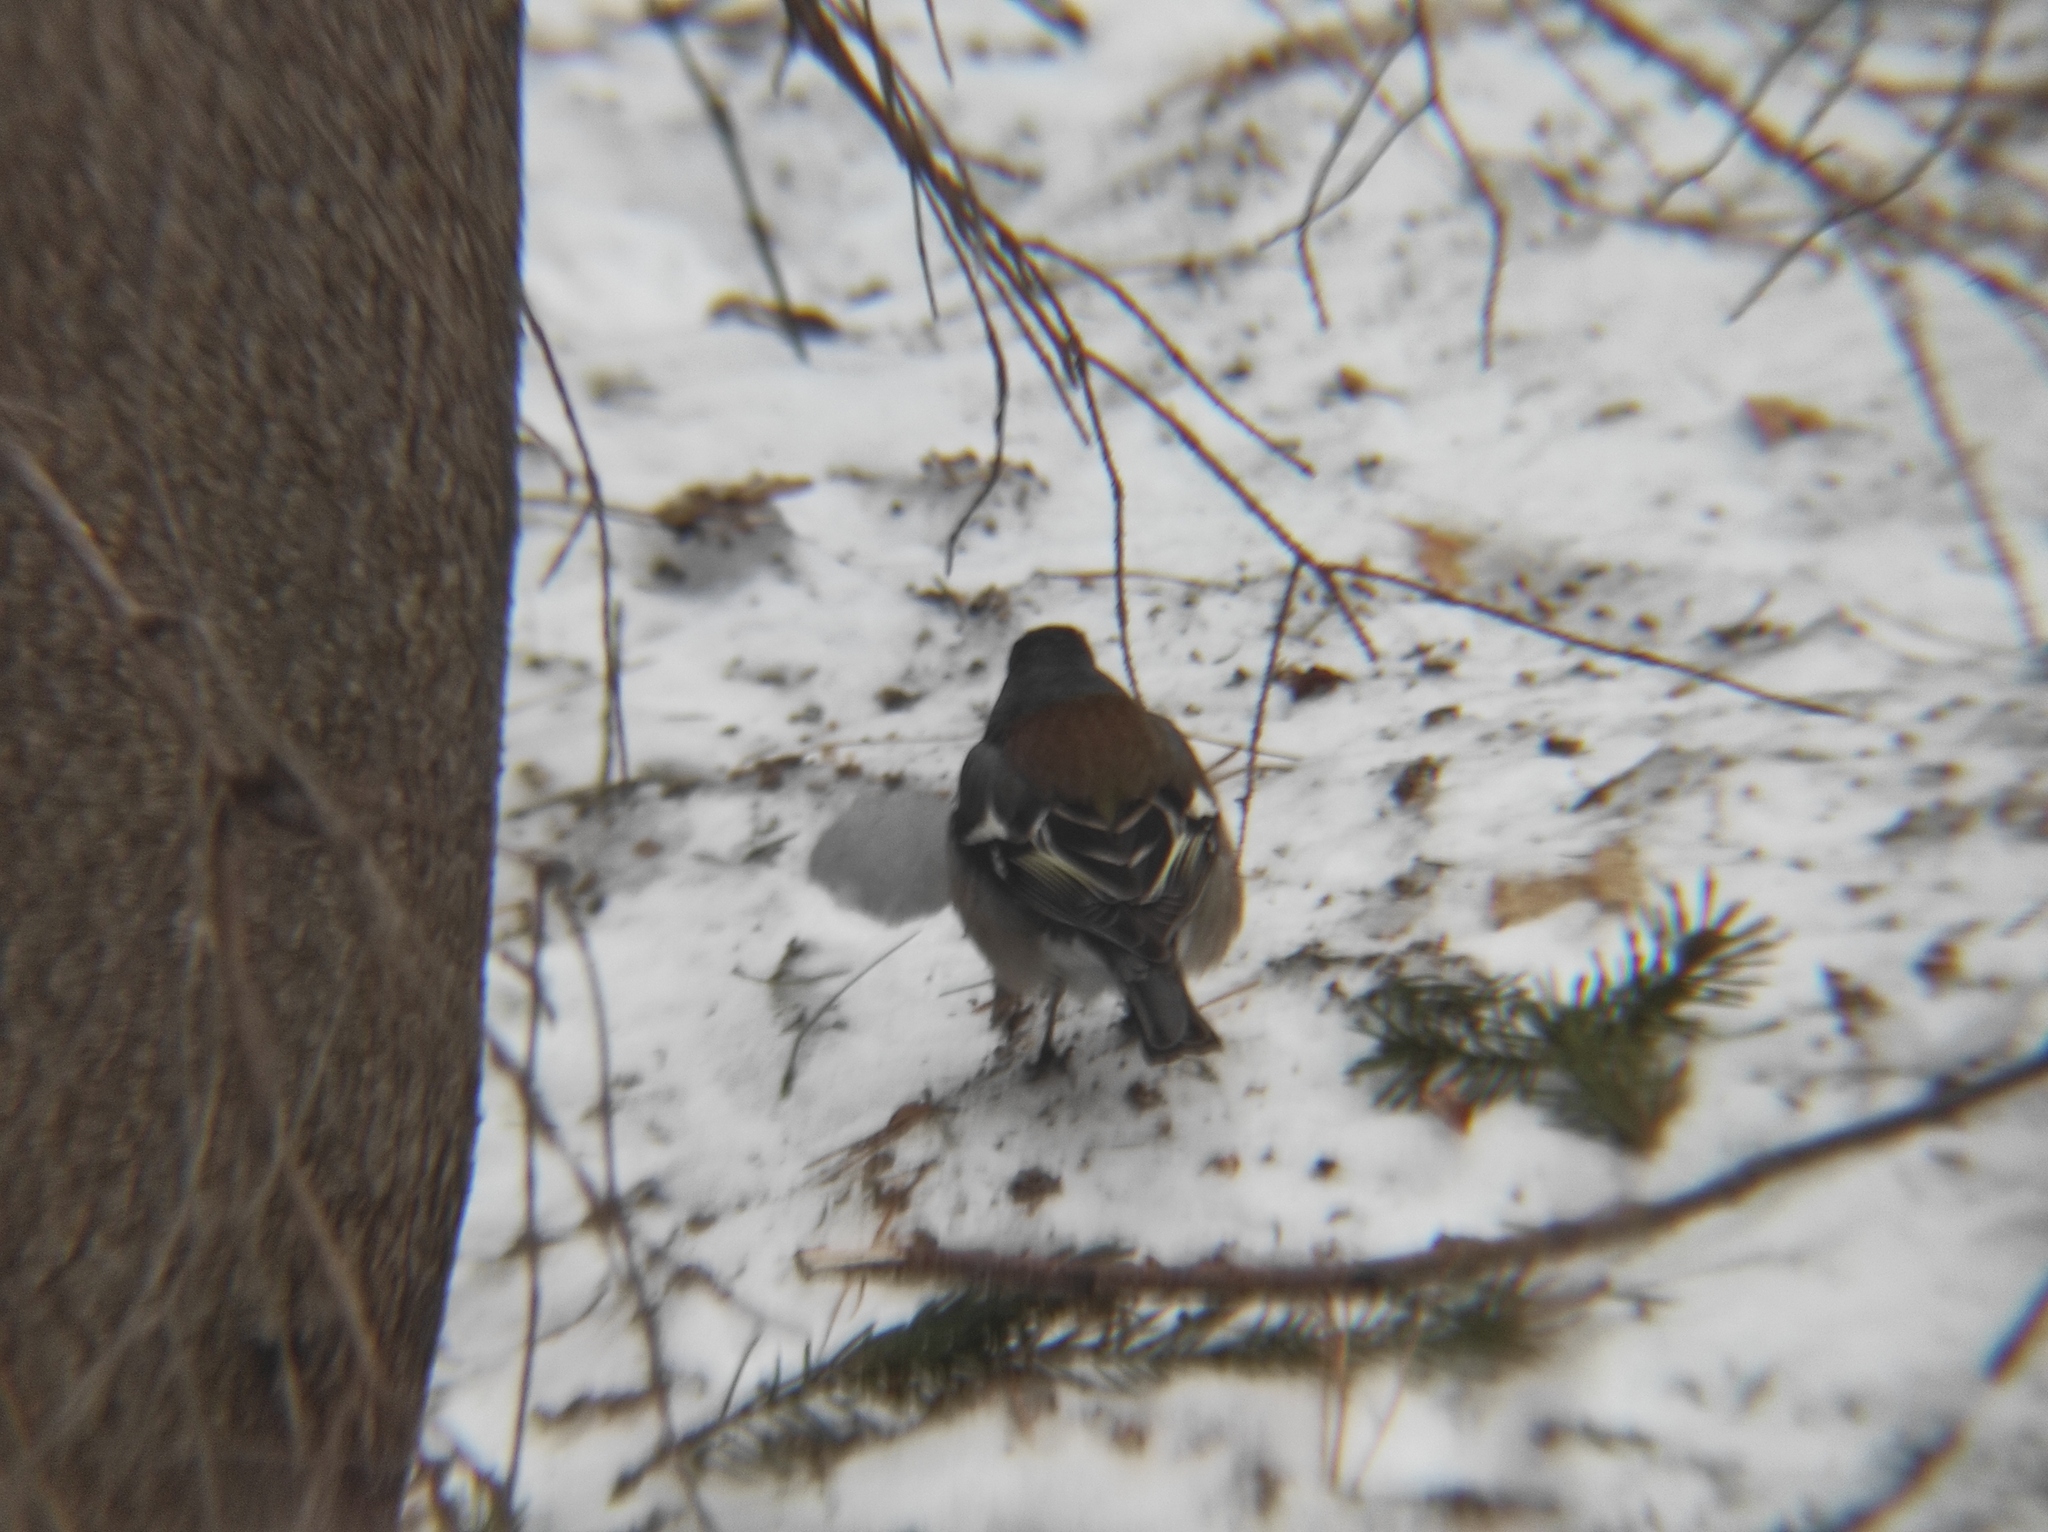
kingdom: Animalia
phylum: Chordata
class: Aves
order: Passeriformes
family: Fringillidae
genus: Fringilla
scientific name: Fringilla coelebs
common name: Common chaffinch
